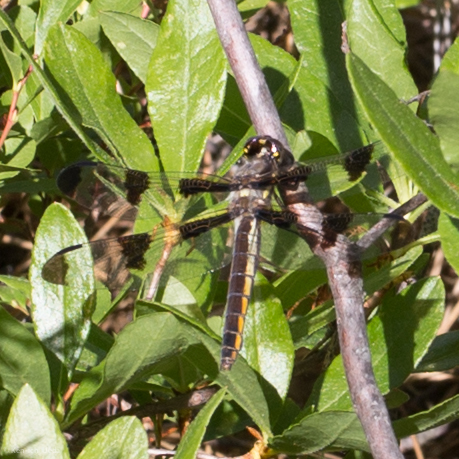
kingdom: Animalia
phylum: Arthropoda
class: Insecta
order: Odonata
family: Libellulidae
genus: Libellula
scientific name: Libellula pulchella
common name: Twelve-spotted skimmer
